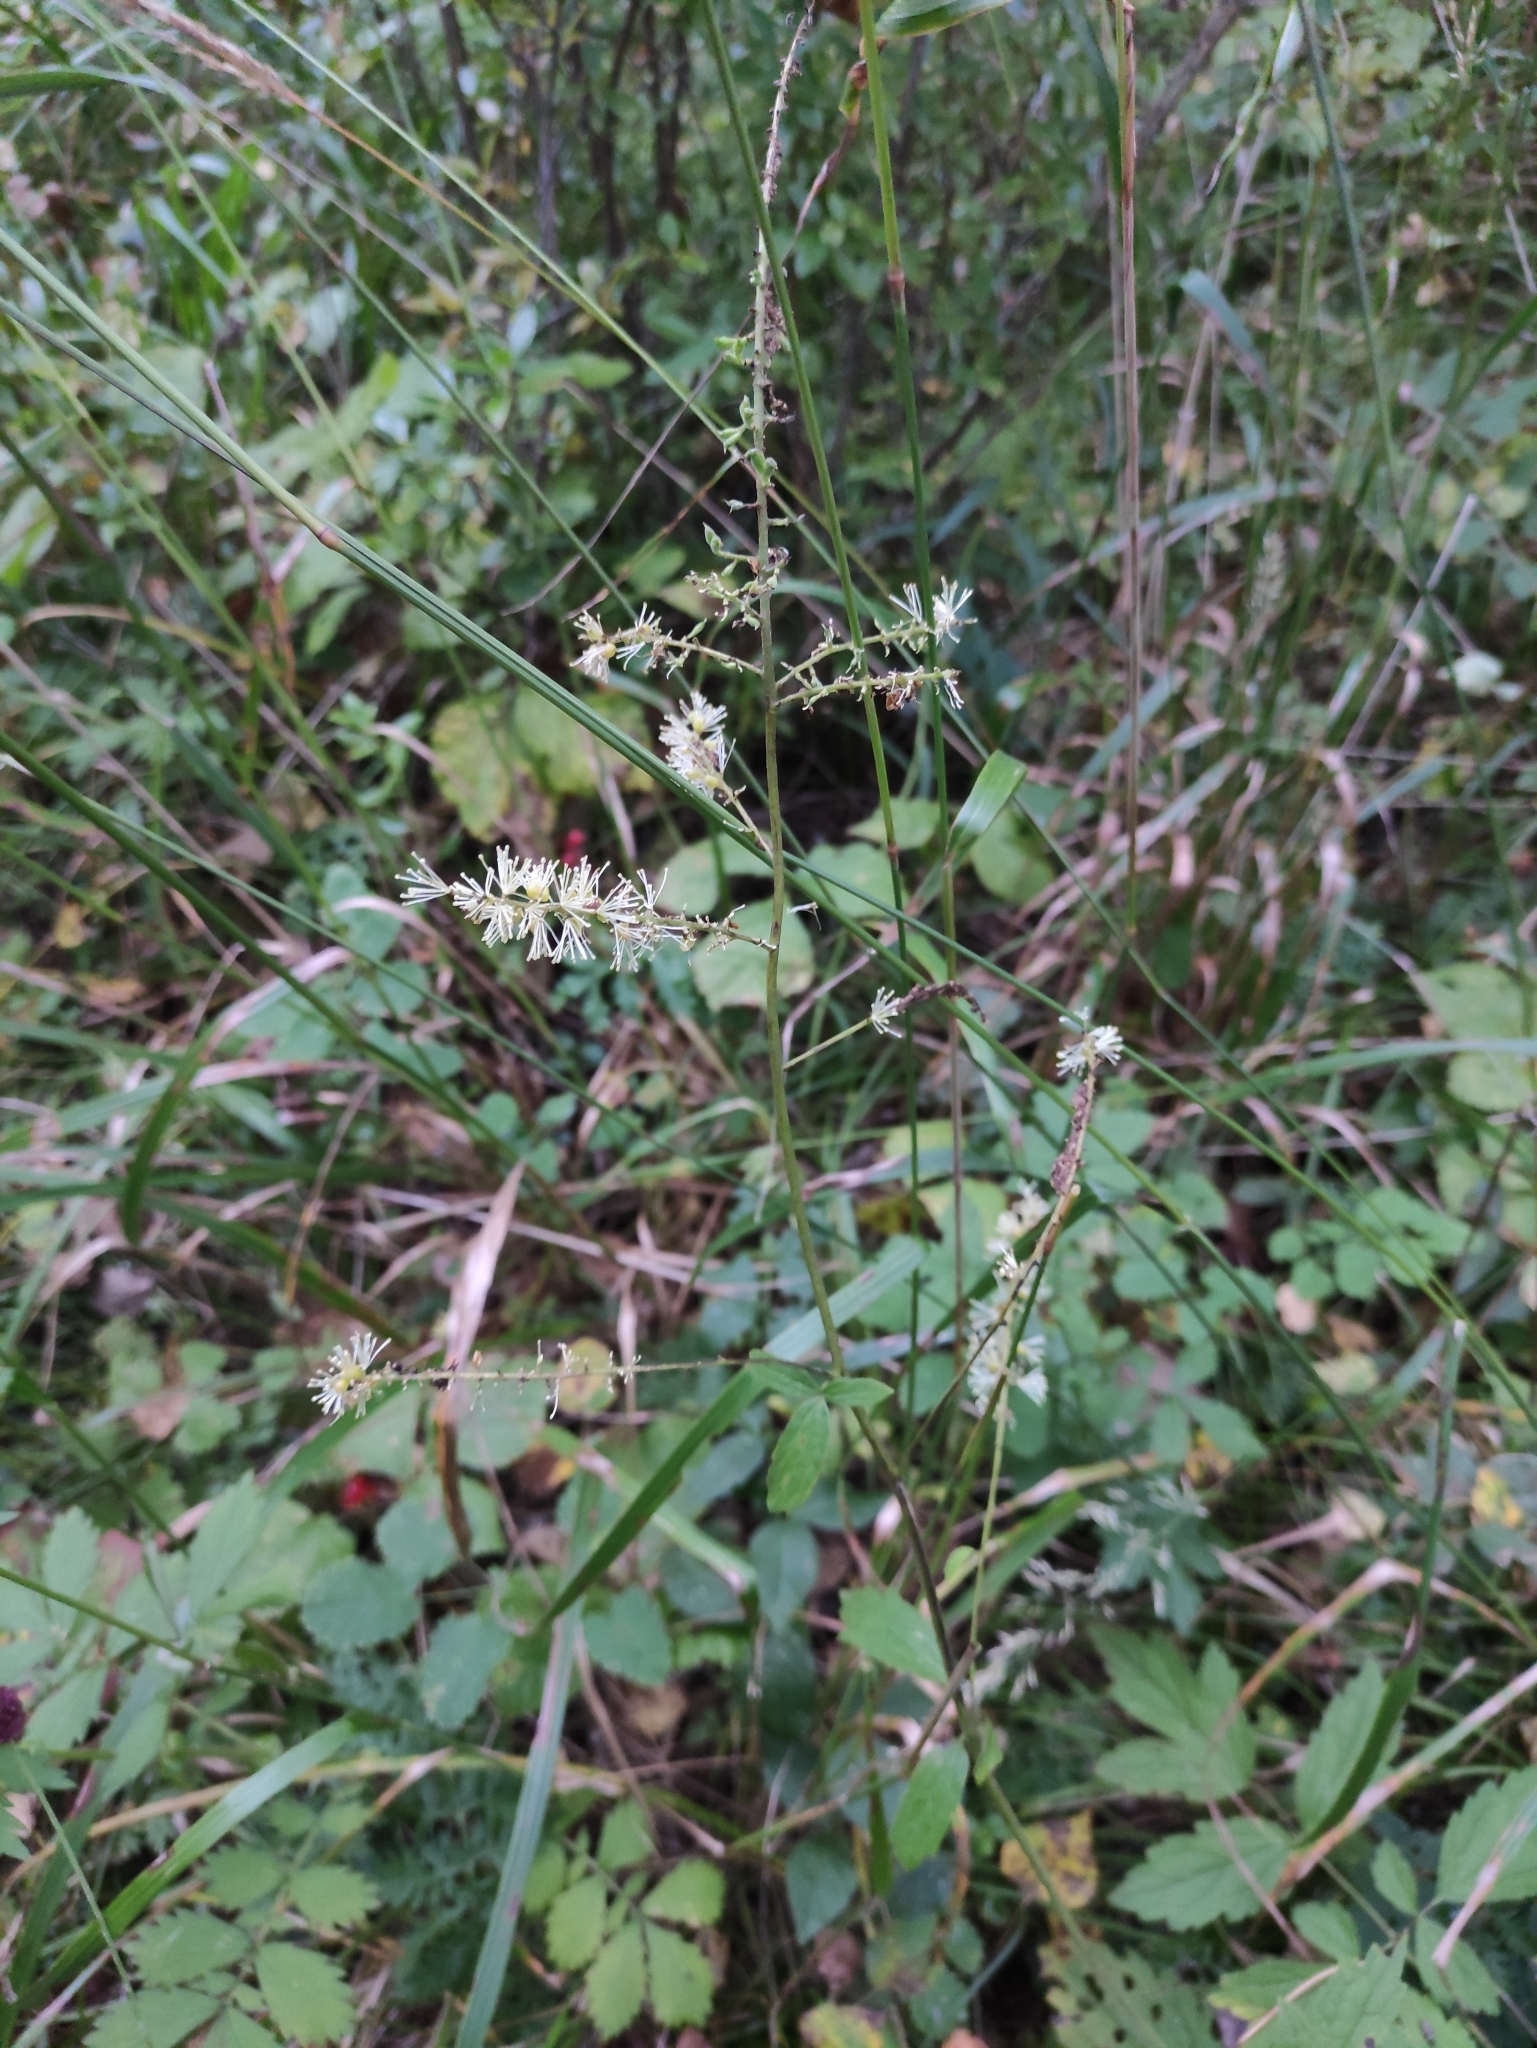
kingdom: Plantae
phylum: Tracheophyta
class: Magnoliopsida
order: Ranunculales
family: Ranunculaceae
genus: Actaea
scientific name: Actaea cimicifuga
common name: Chinese cimicifuga
